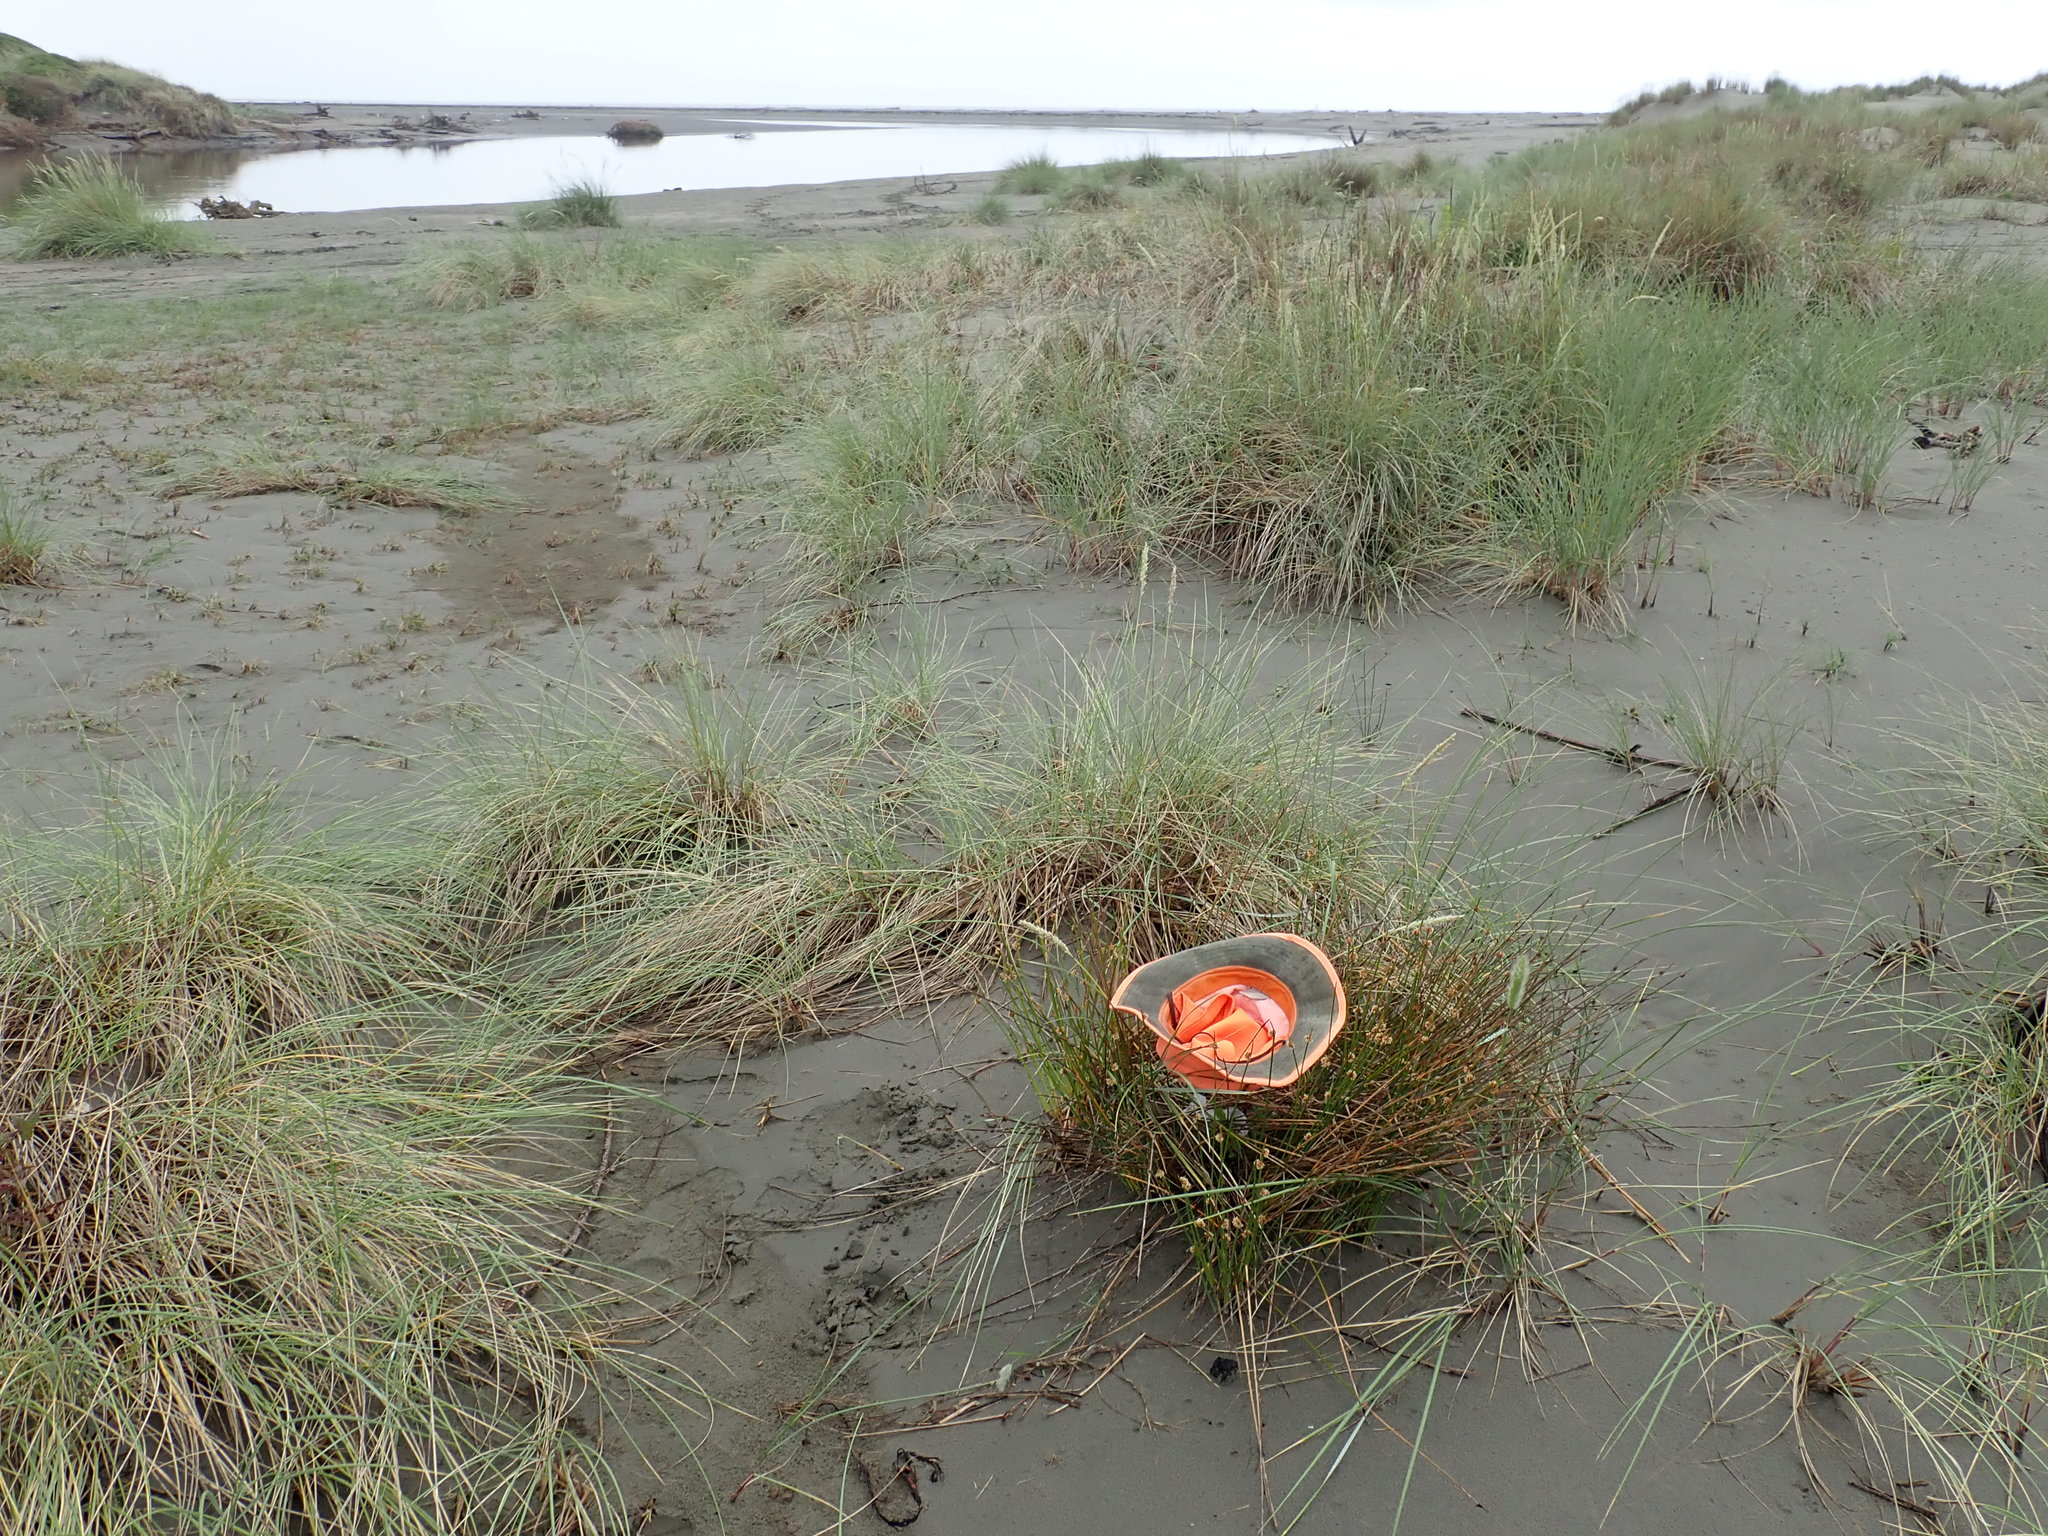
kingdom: Plantae
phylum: Tracheophyta
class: Liliopsida
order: Poales
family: Cyperaceae
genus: Ficinia
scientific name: Ficinia nodosa
